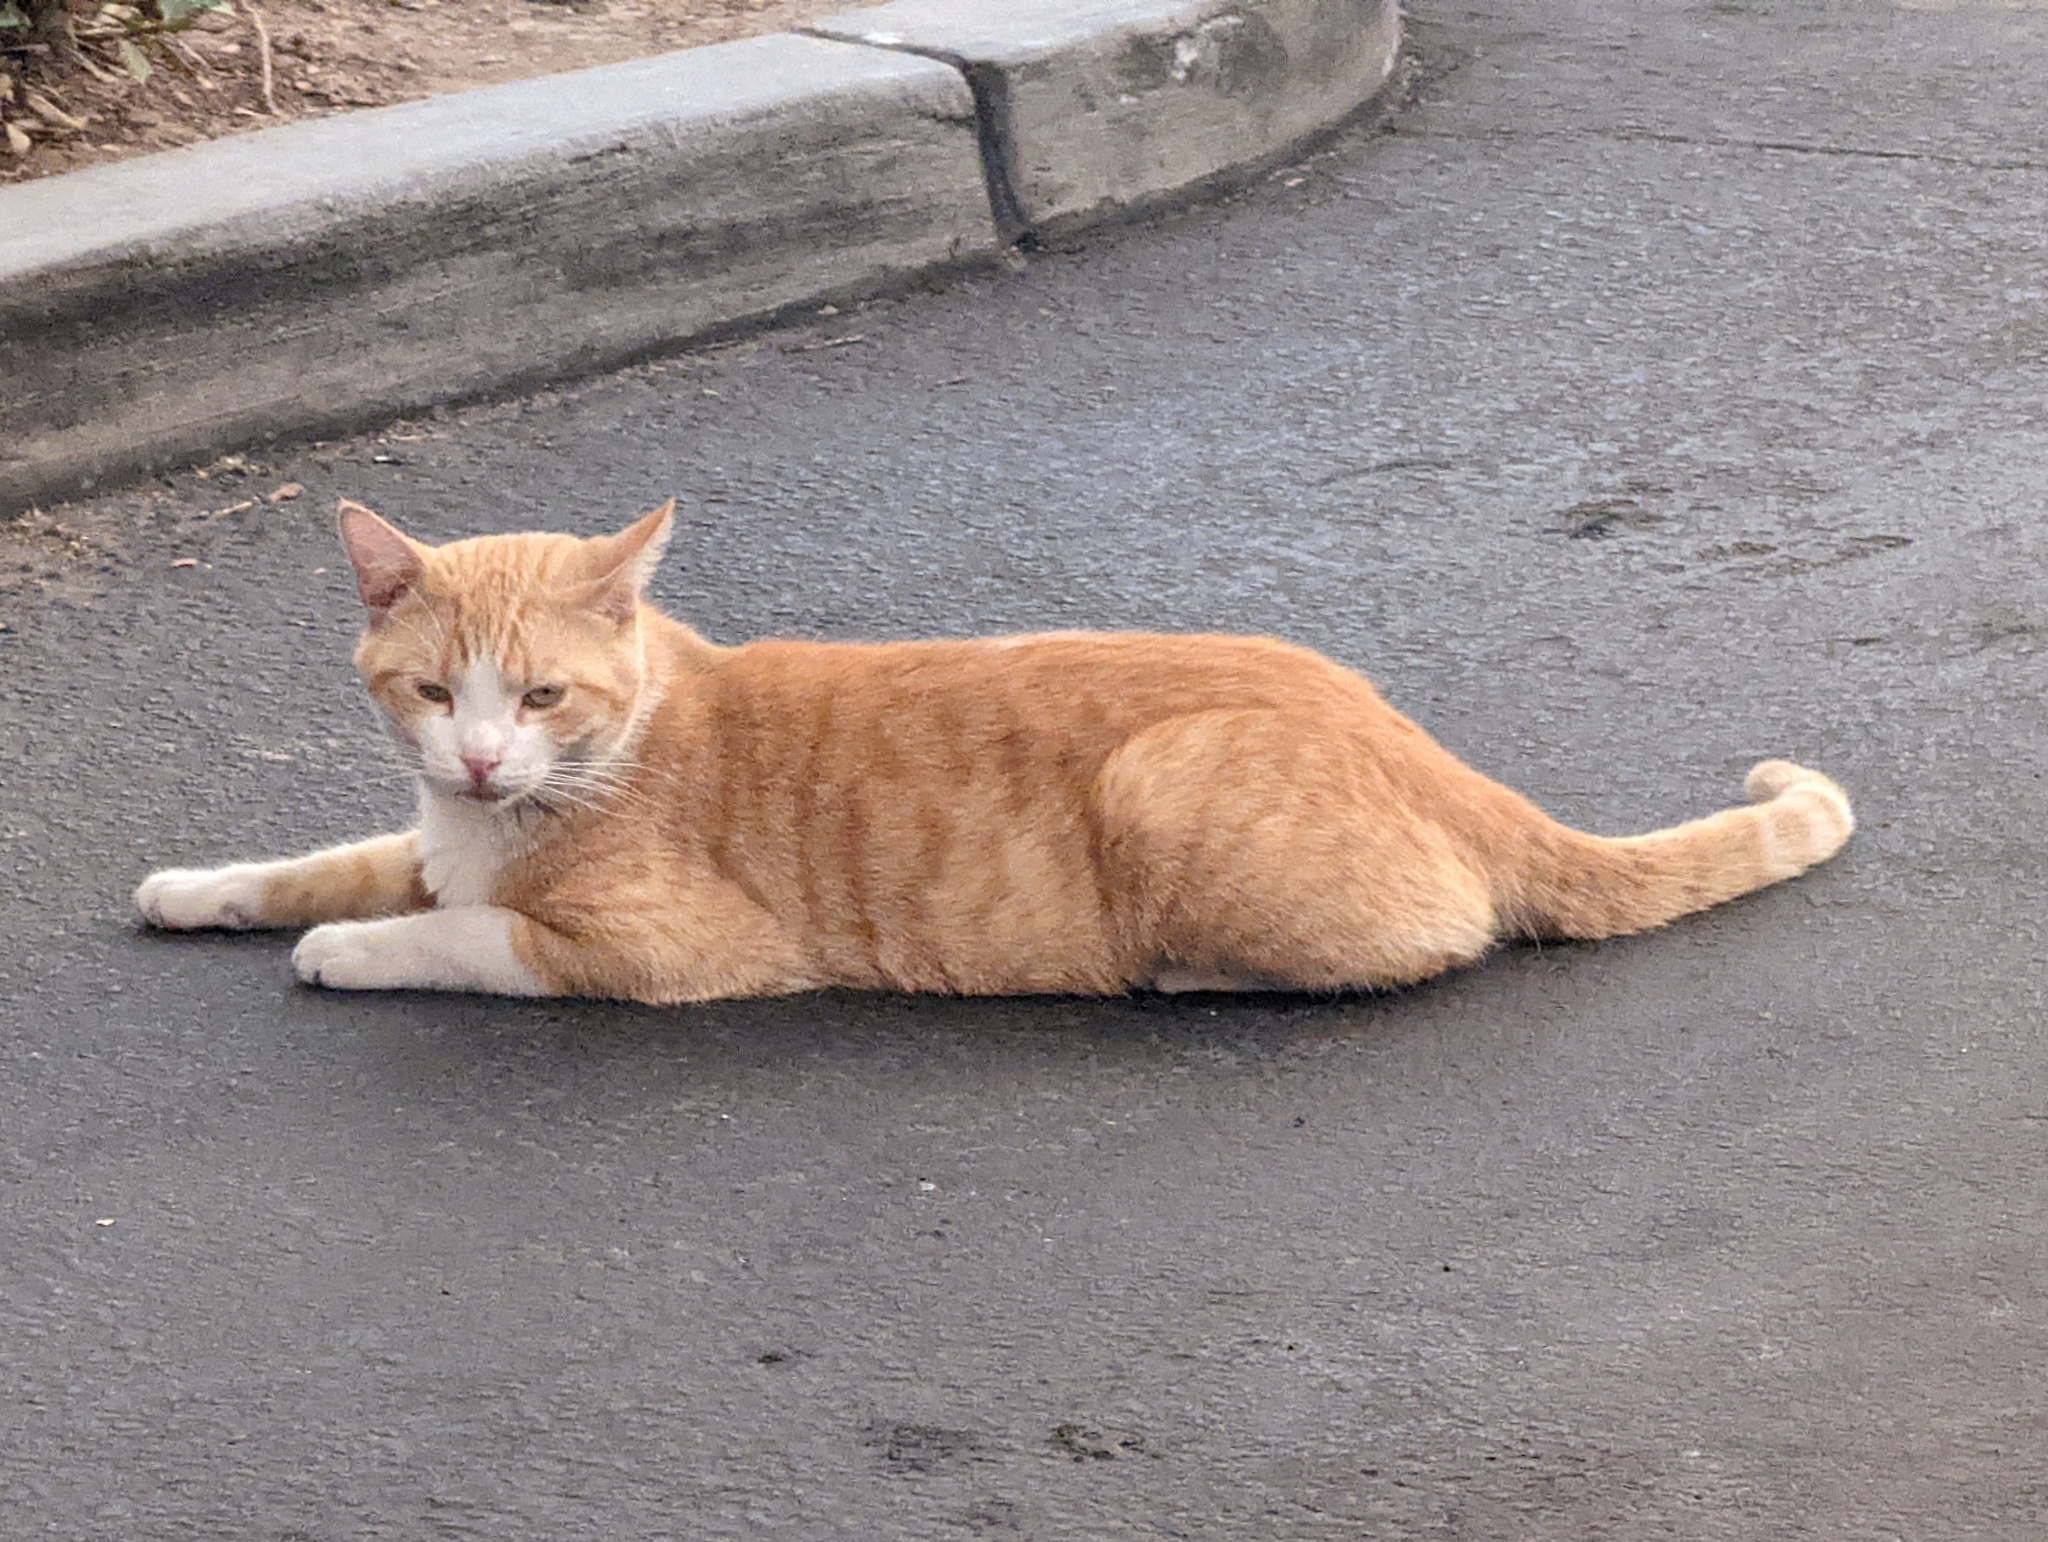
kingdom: Animalia
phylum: Chordata
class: Mammalia
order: Carnivora
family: Felidae
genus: Felis
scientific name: Felis catus
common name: Domestic cat
